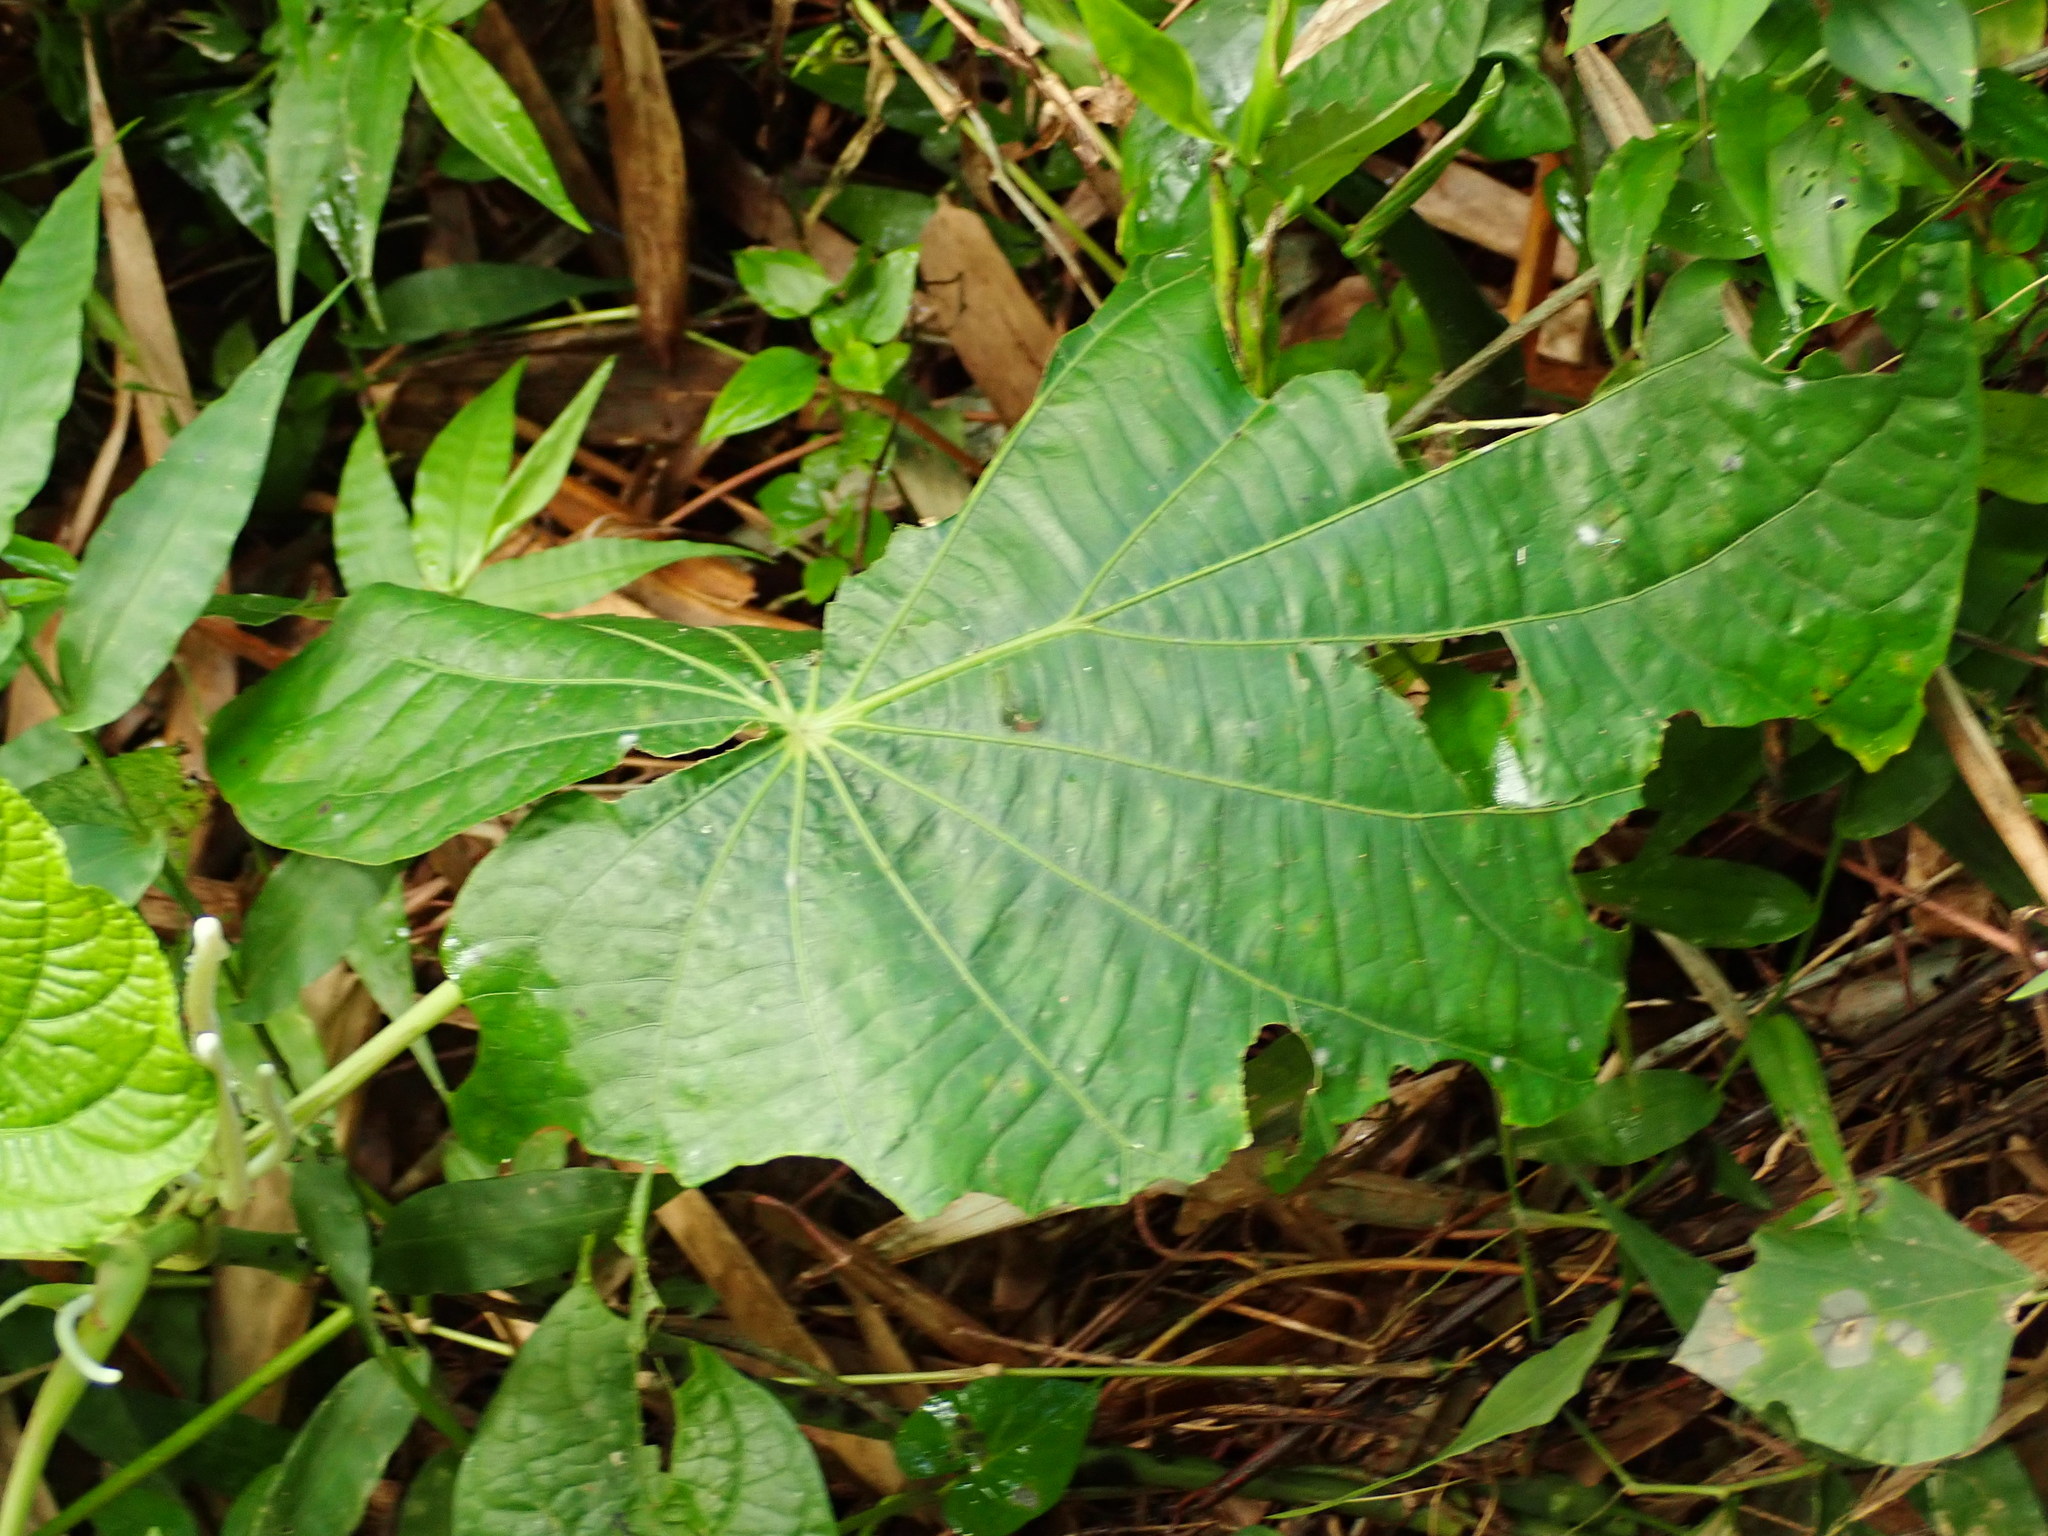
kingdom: Plantae
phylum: Tracheophyta
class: Magnoliopsida
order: Piperales
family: Piperaceae
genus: Piper
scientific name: Piper umbellatum
